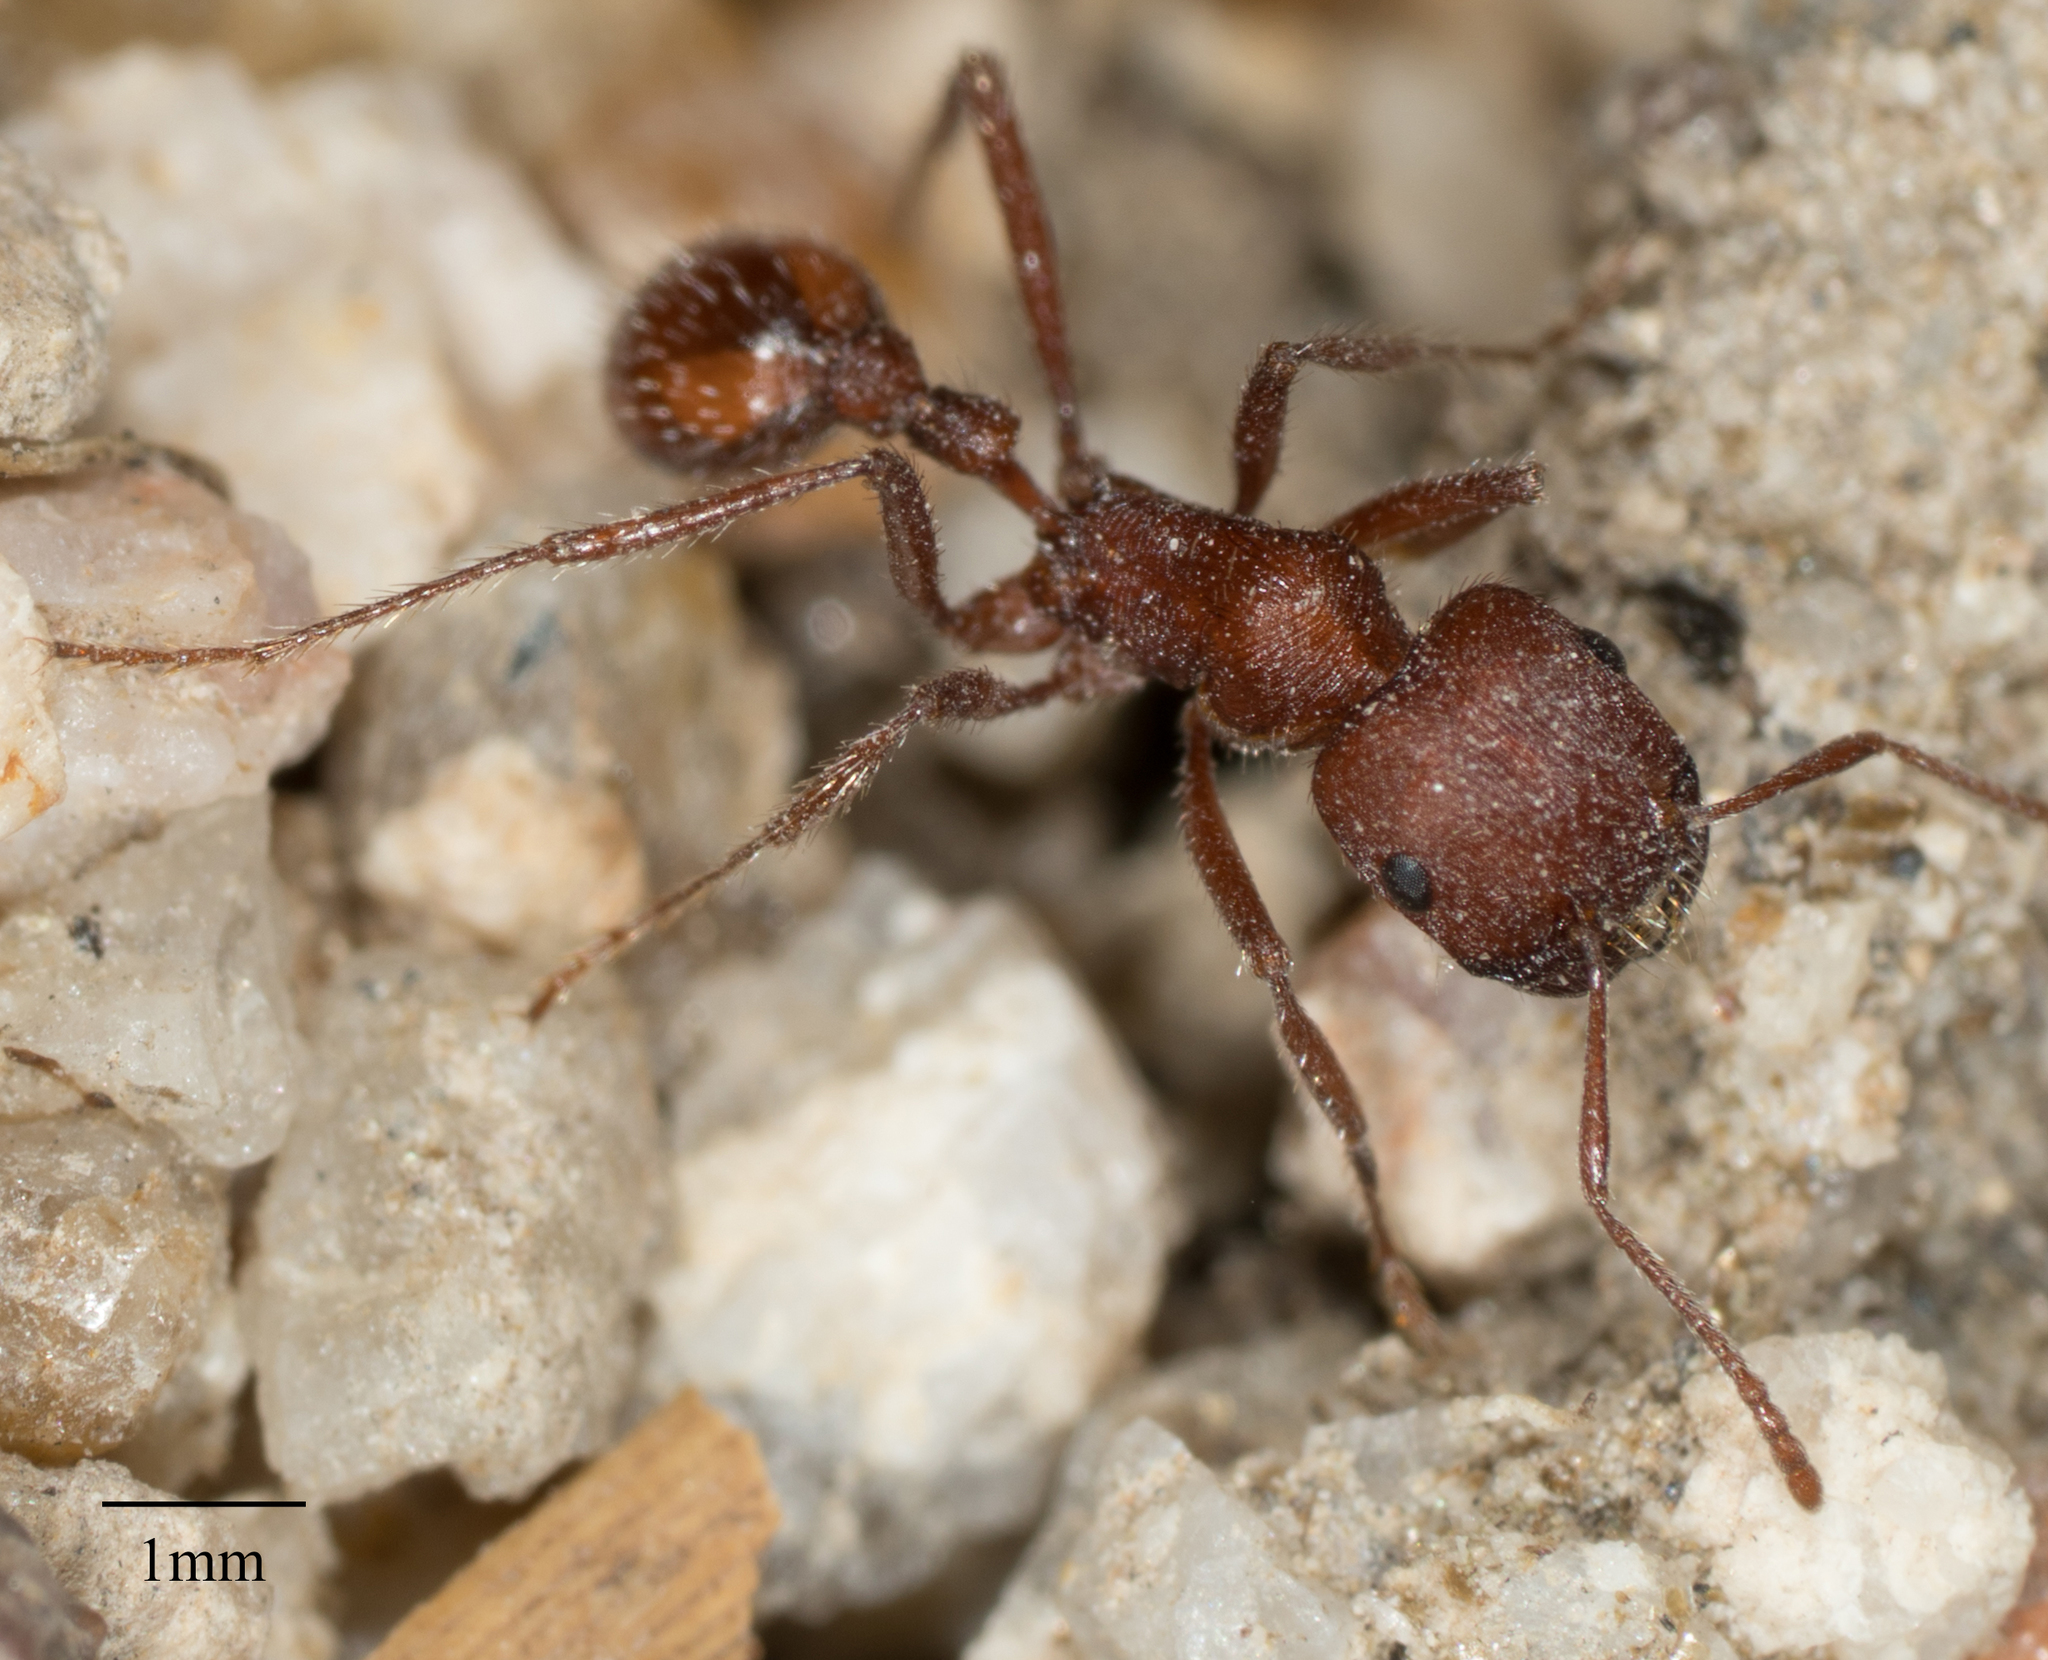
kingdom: Animalia
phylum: Arthropoda
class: Insecta
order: Hymenoptera
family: Formicidae
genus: Pogonomyrmex
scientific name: Pogonomyrmex montanus
